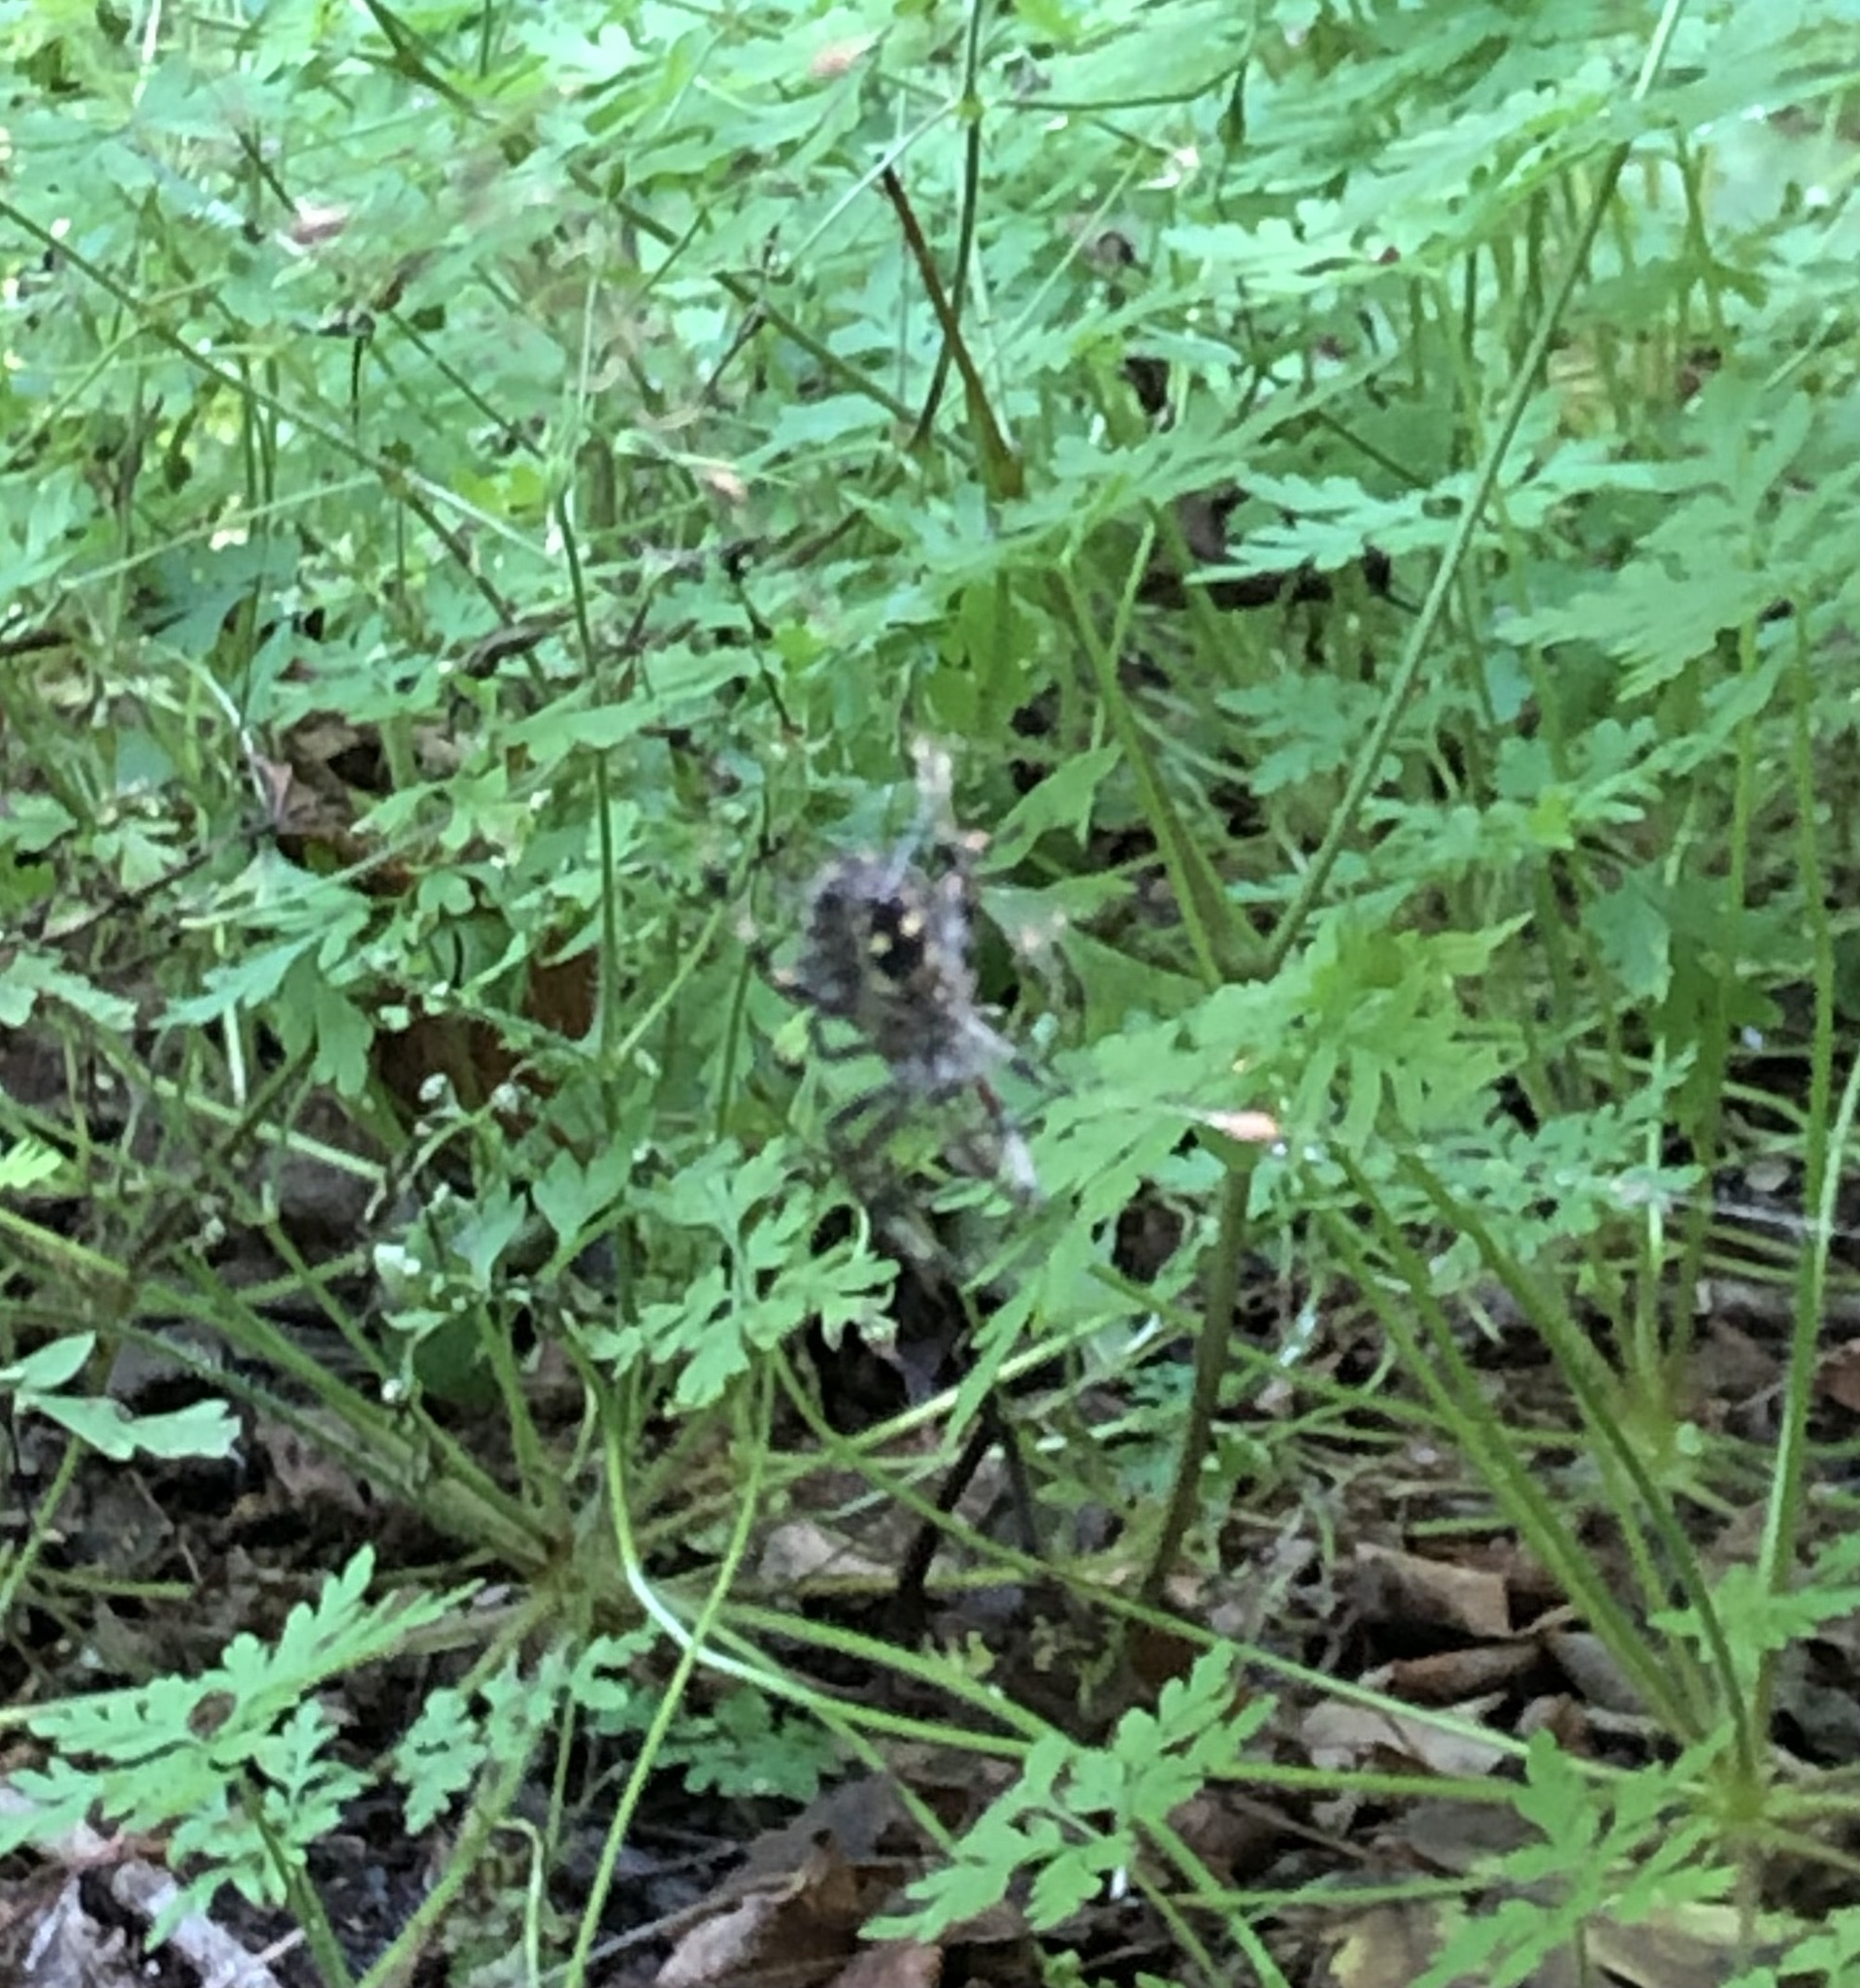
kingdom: Animalia
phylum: Arthropoda
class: Arachnida
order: Araneae
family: Araneidae
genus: Araneus
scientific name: Araneus nordmanni
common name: Nordmann's orbweaver
